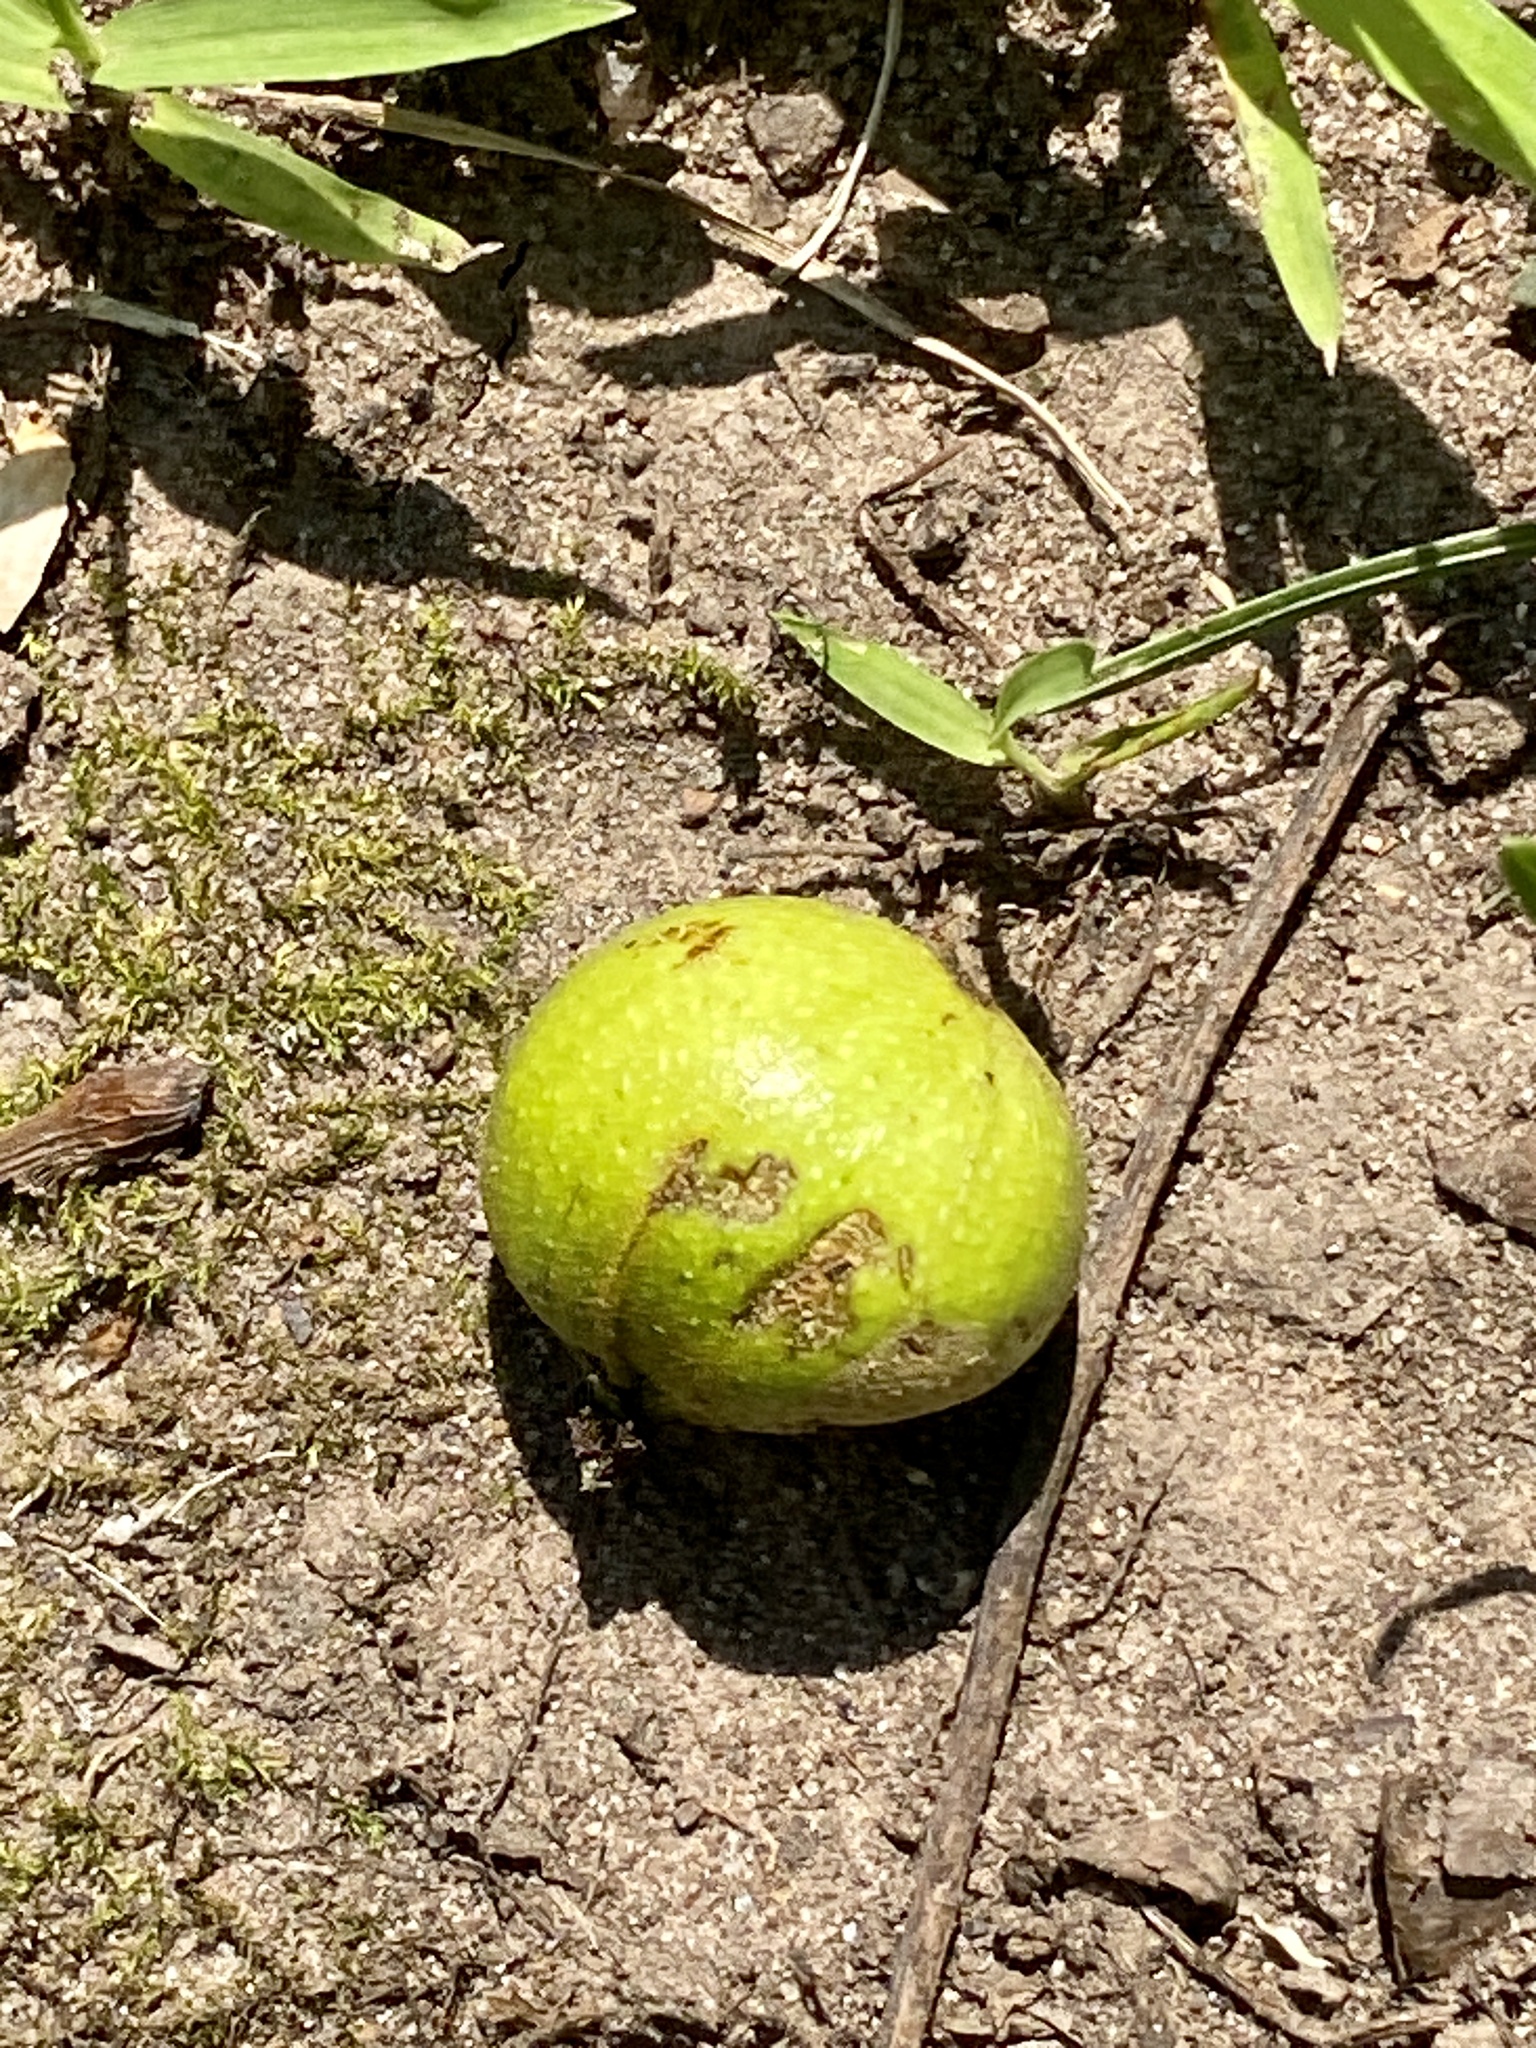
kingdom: Plantae
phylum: Tracheophyta
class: Magnoliopsida
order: Fagales
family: Juglandaceae
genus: Carya
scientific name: Carya cordiformis
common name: Bitternut hickory
